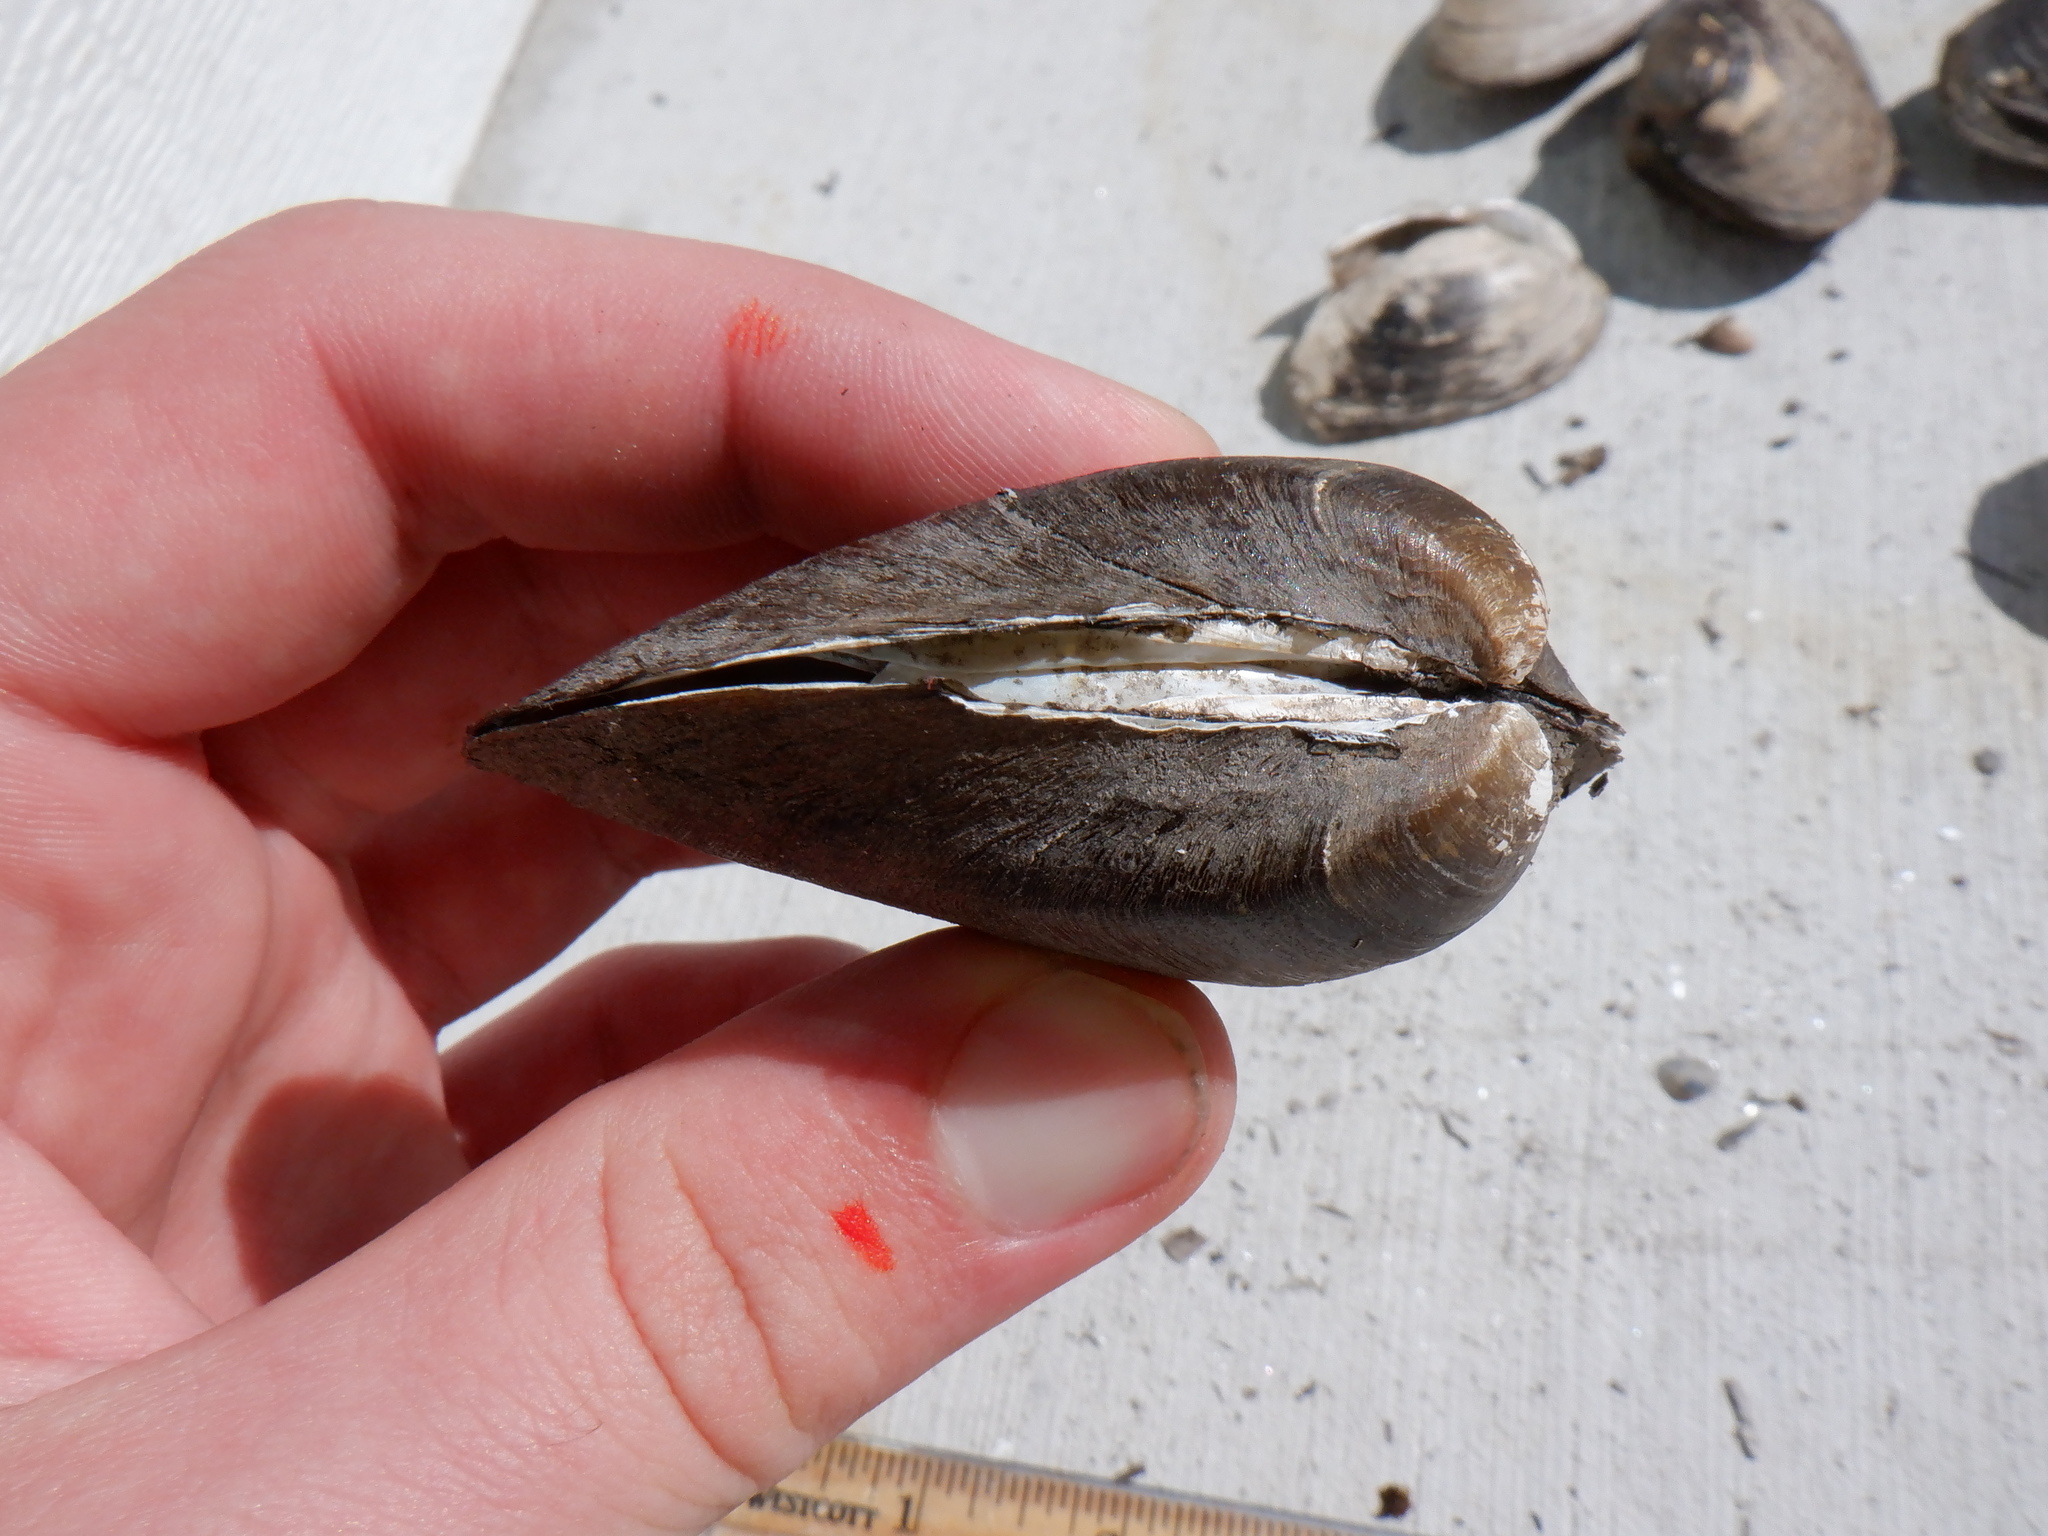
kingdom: Animalia
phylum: Mollusca
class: Bivalvia
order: Unionida
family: Unionidae
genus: Fusconaia
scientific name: Fusconaia flava
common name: Wabash pigtoe
